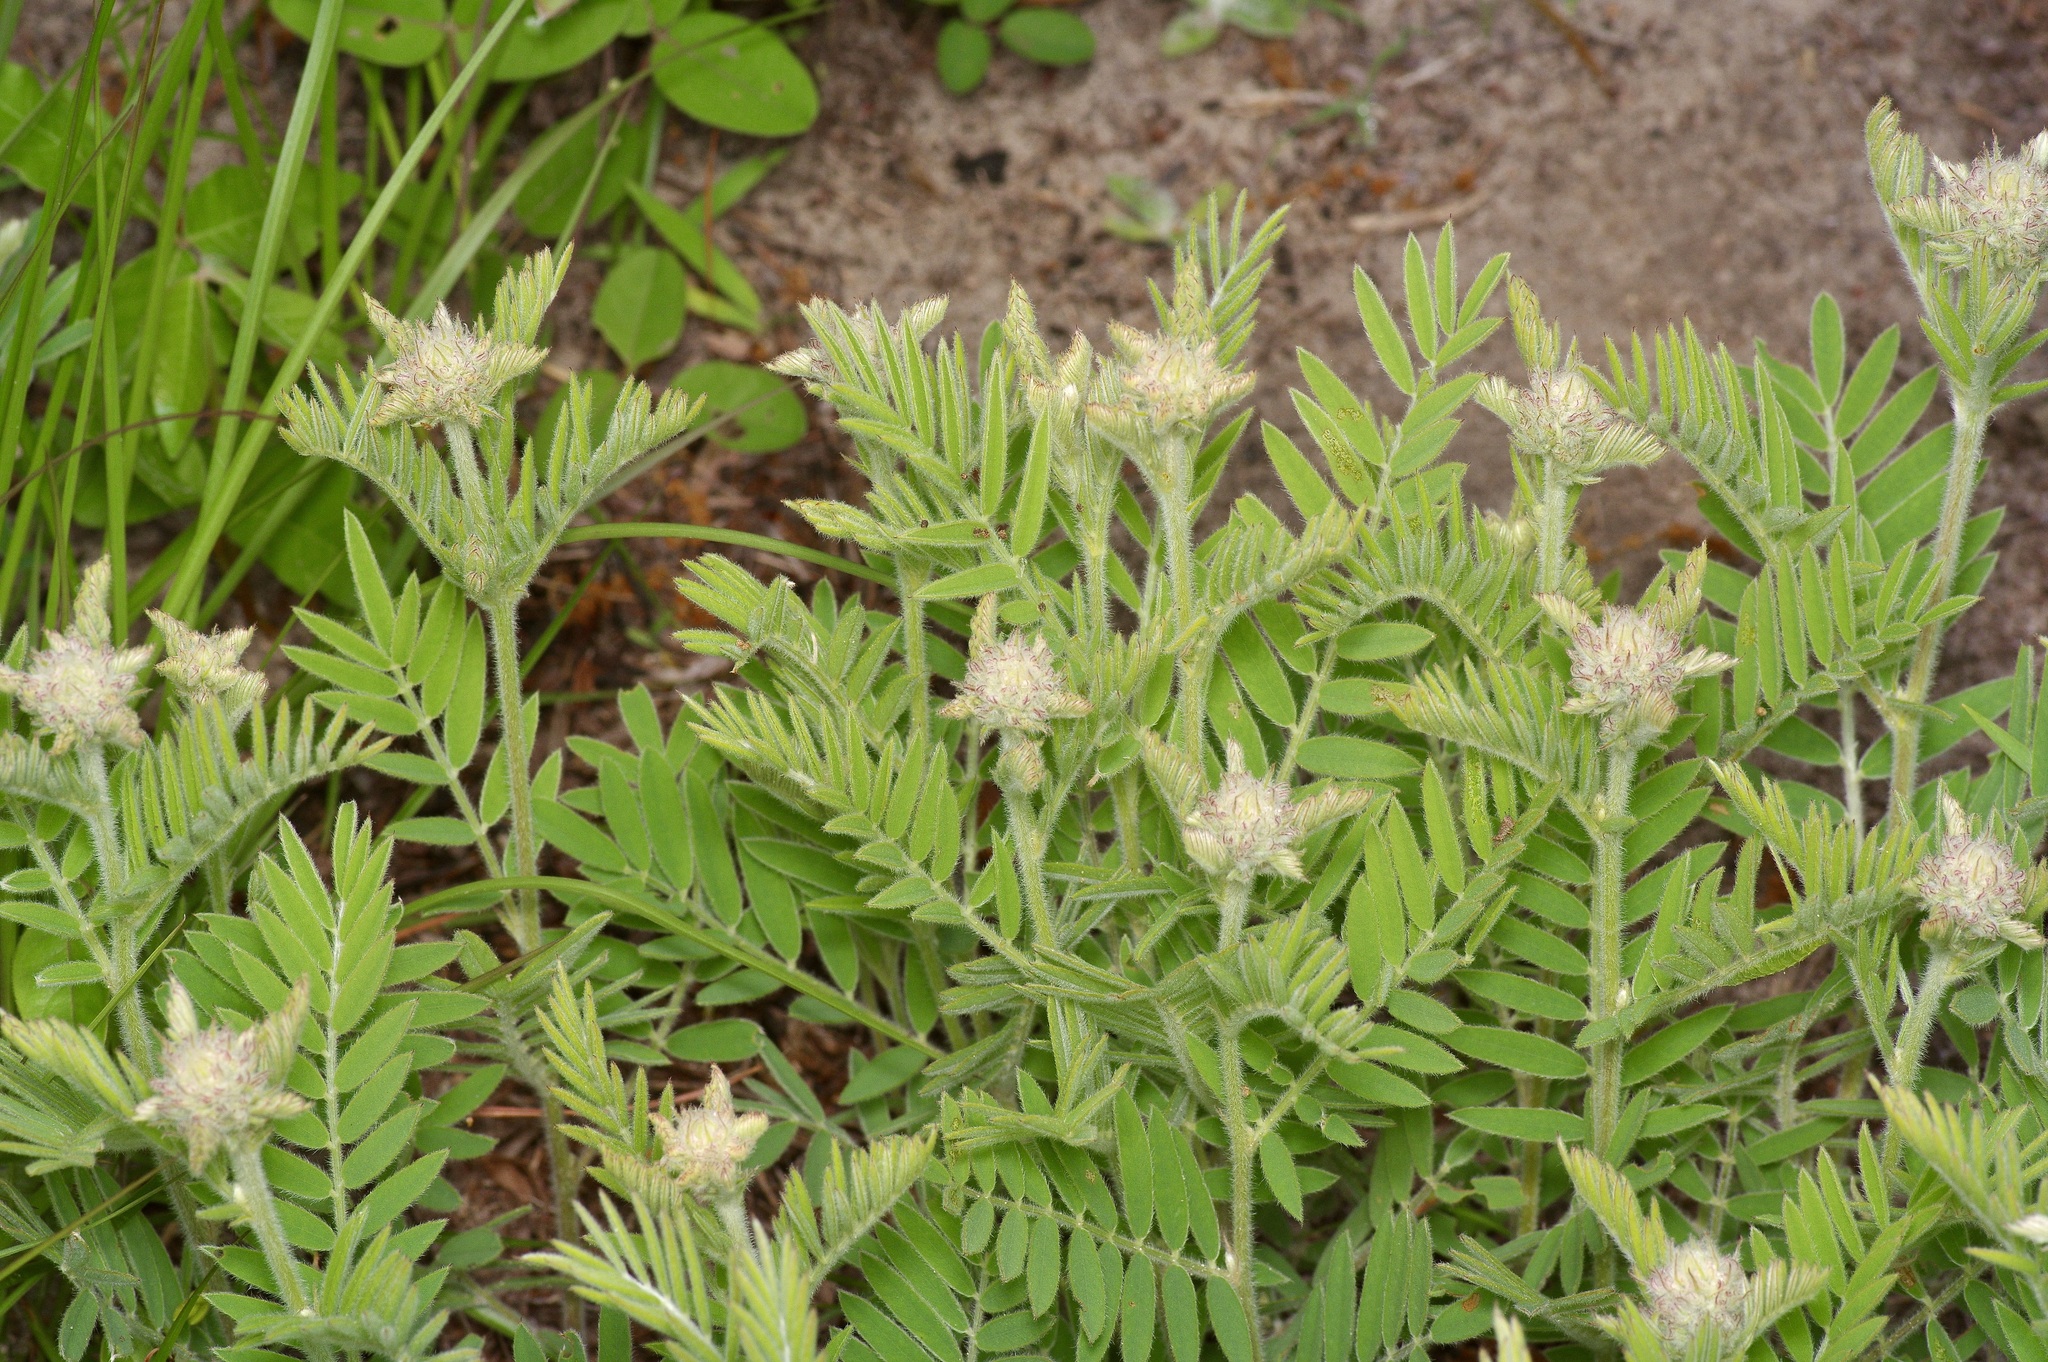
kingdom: Plantae
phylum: Tracheophyta
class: Magnoliopsida
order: Fabales
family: Fabaceae
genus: Tephrosia
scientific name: Tephrosia virginiana
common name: Rabbit-pea
